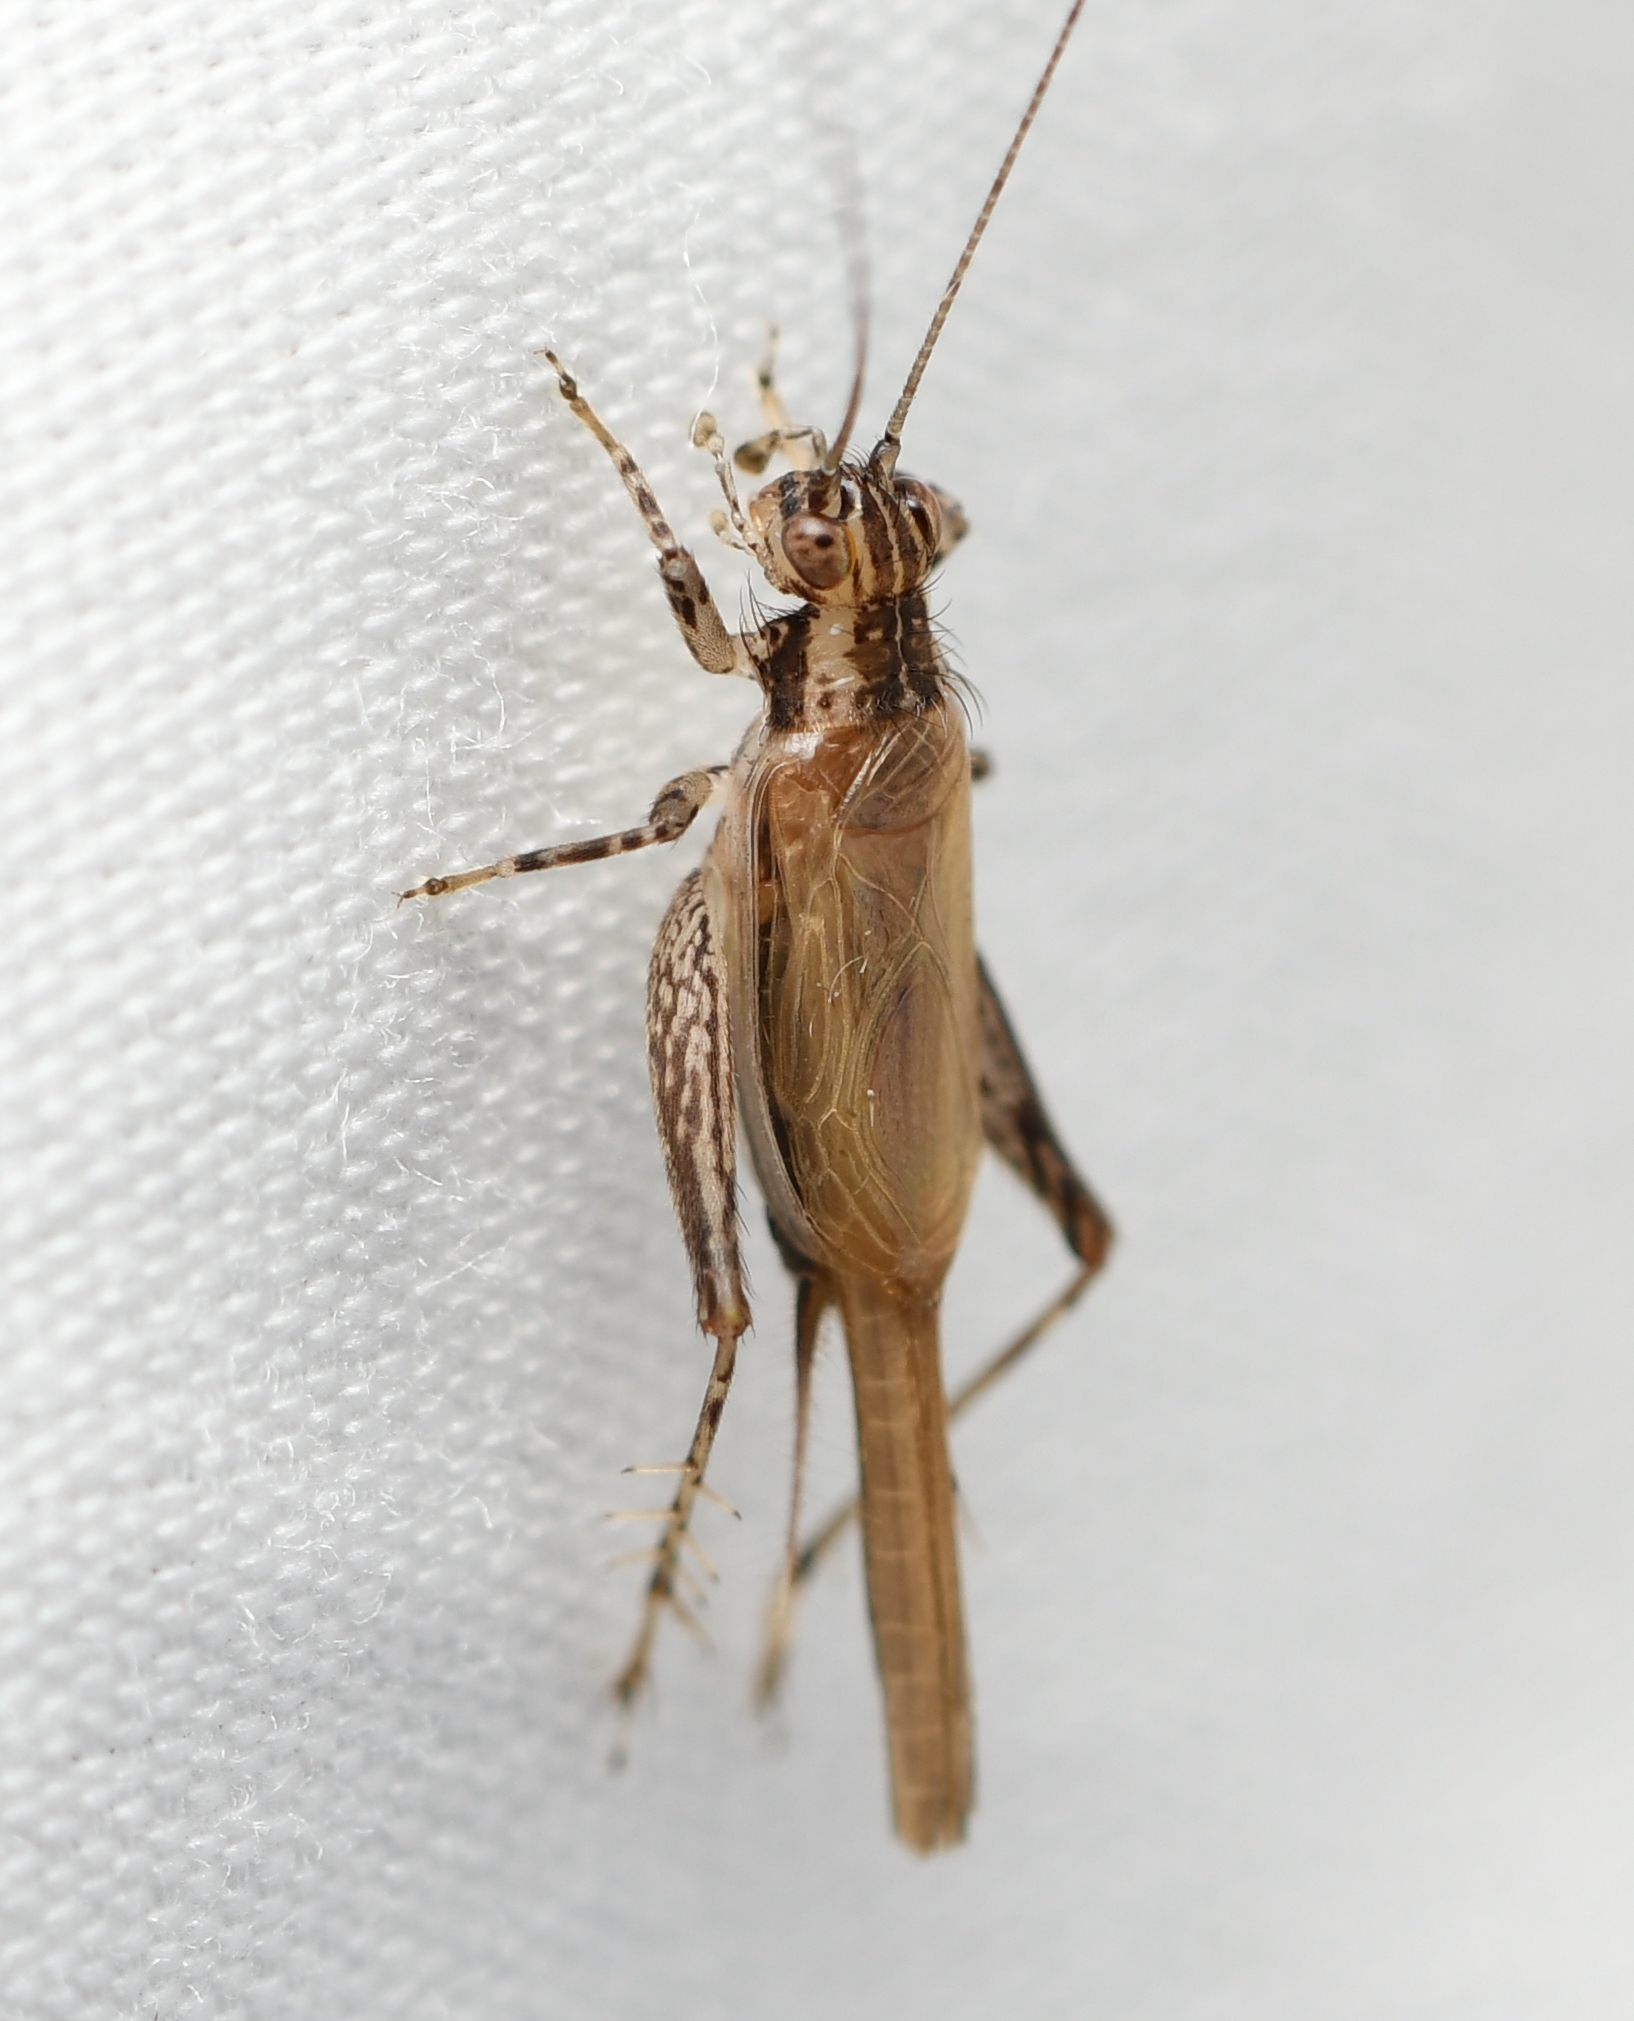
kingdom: Animalia
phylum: Arthropoda
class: Insecta
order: Orthoptera
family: Trigonidiidae
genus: Anaxipha
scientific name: Anaxipha fultoni
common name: Fulton's trig
